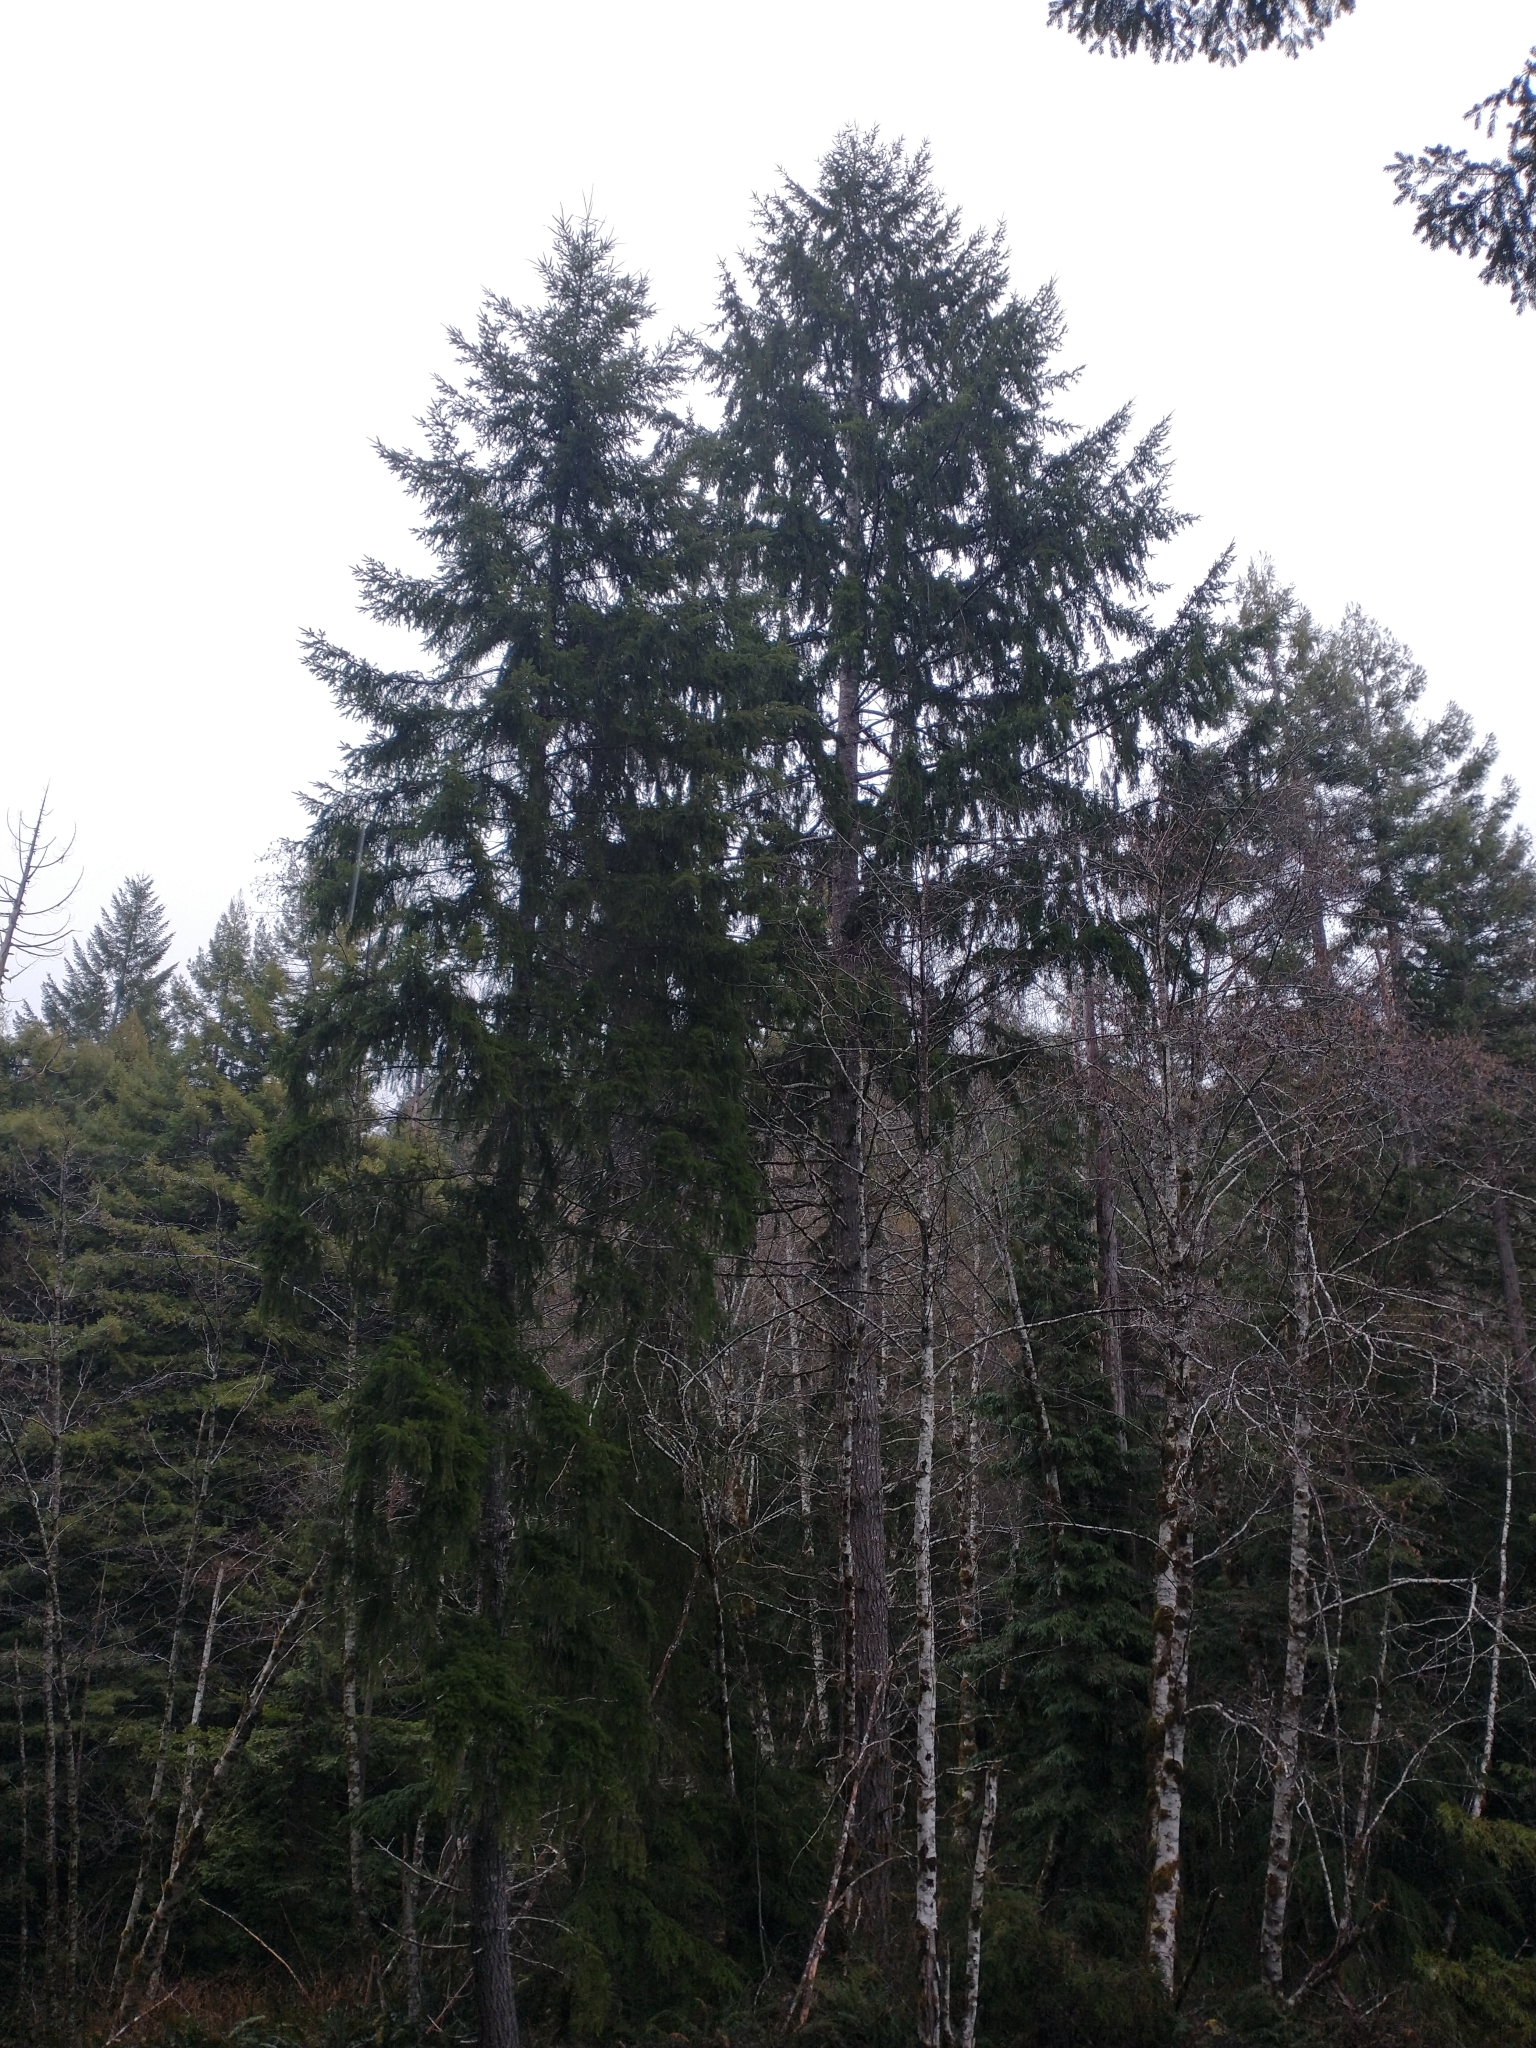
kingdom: Plantae
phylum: Tracheophyta
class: Pinopsida
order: Pinales
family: Pinaceae
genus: Pseudotsuga
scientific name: Pseudotsuga menziesii
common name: Douglas fir
